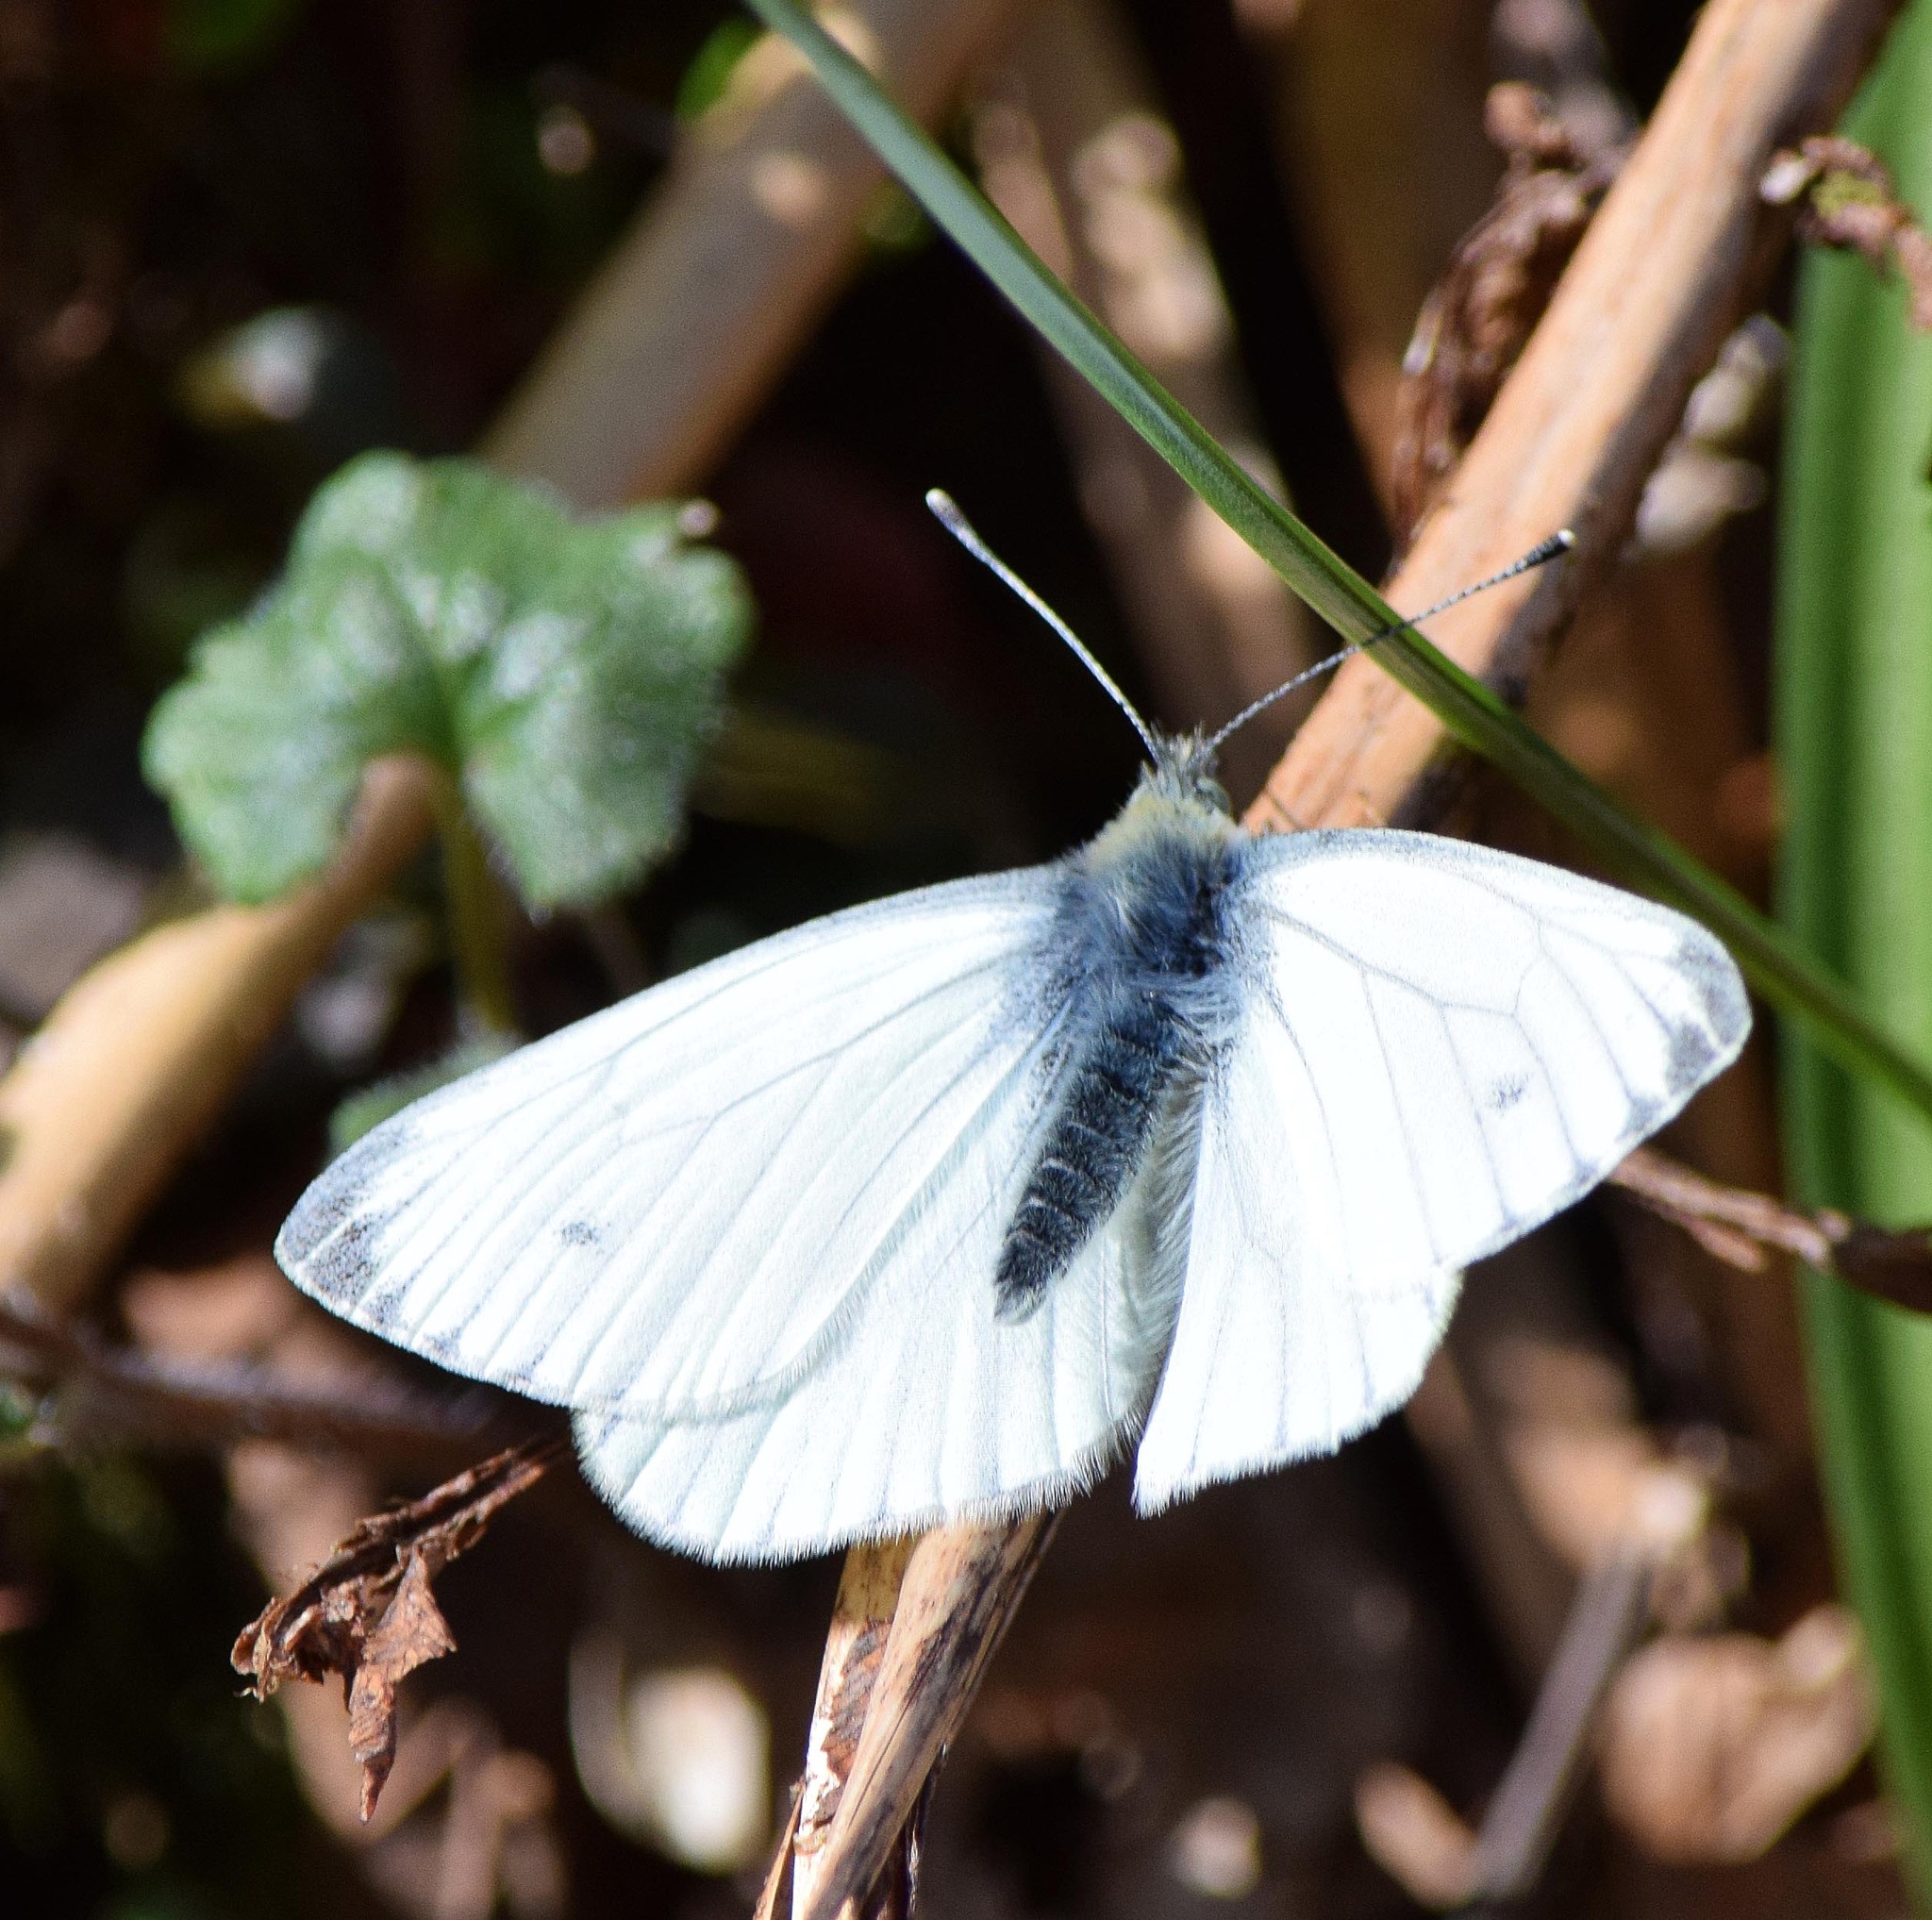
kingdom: Animalia
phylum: Arthropoda
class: Insecta
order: Lepidoptera
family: Pieridae
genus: Pieris
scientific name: Pieris napi
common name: Green-veined white
